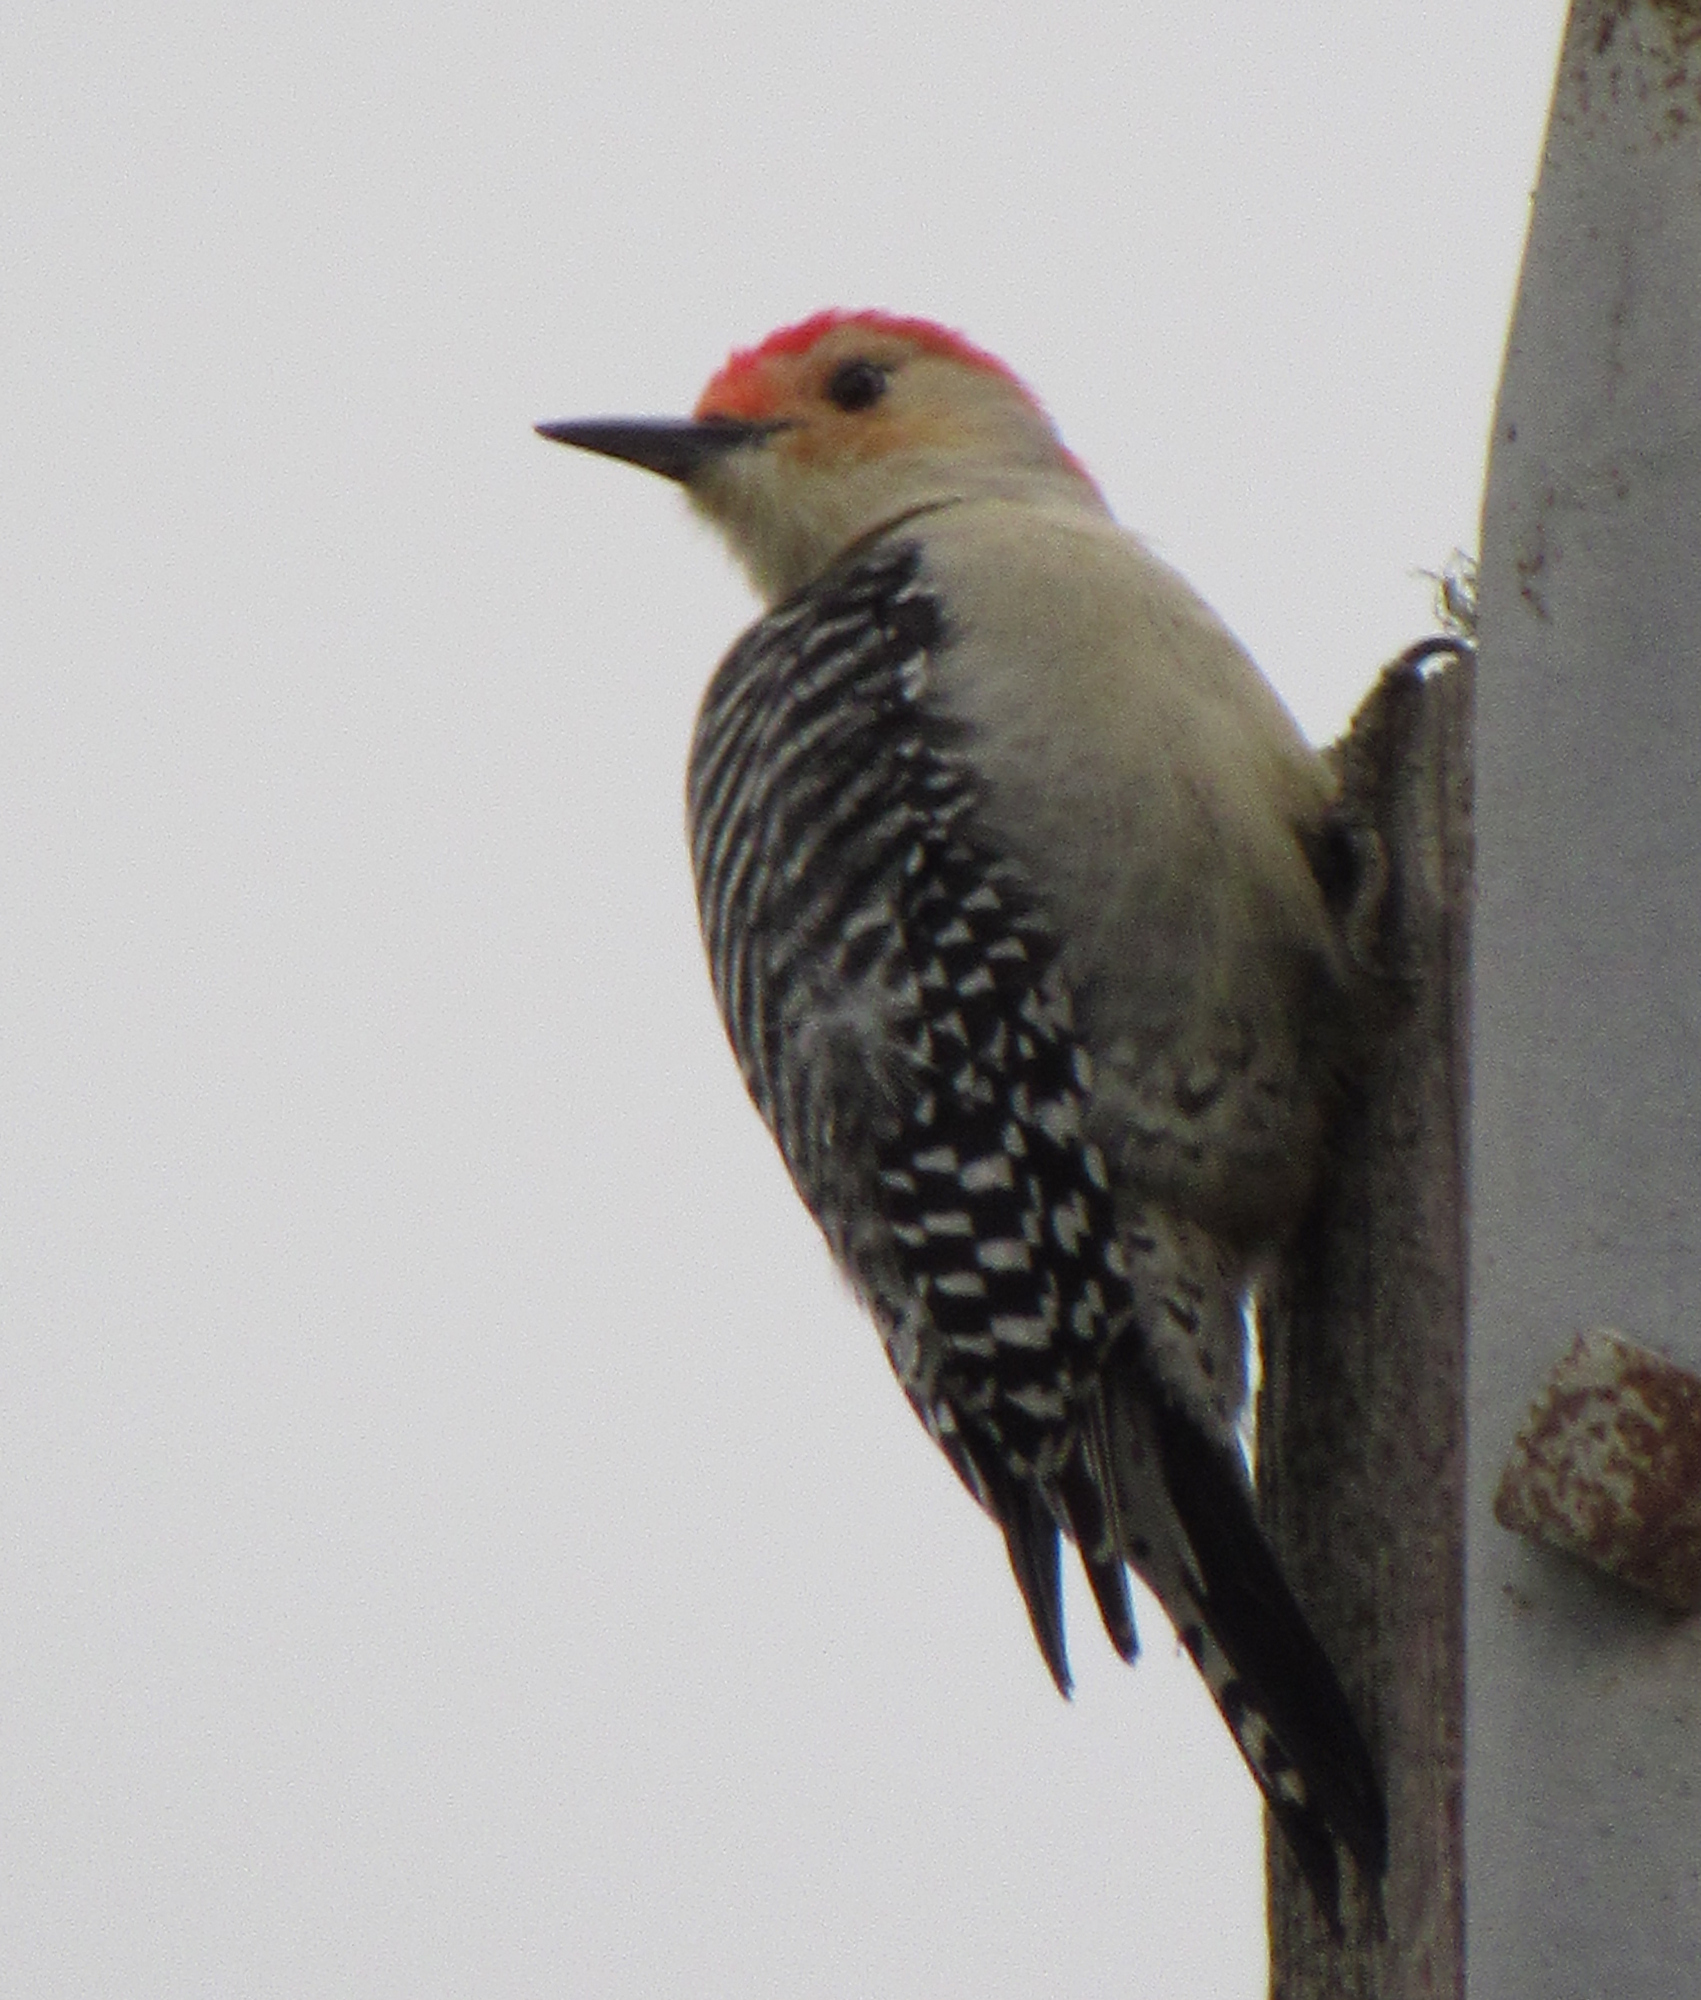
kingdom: Animalia
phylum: Chordata
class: Aves
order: Piciformes
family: Picidae
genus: Melanerpes
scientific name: Melanerpes carolinus
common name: Red-bellied woodpecker
